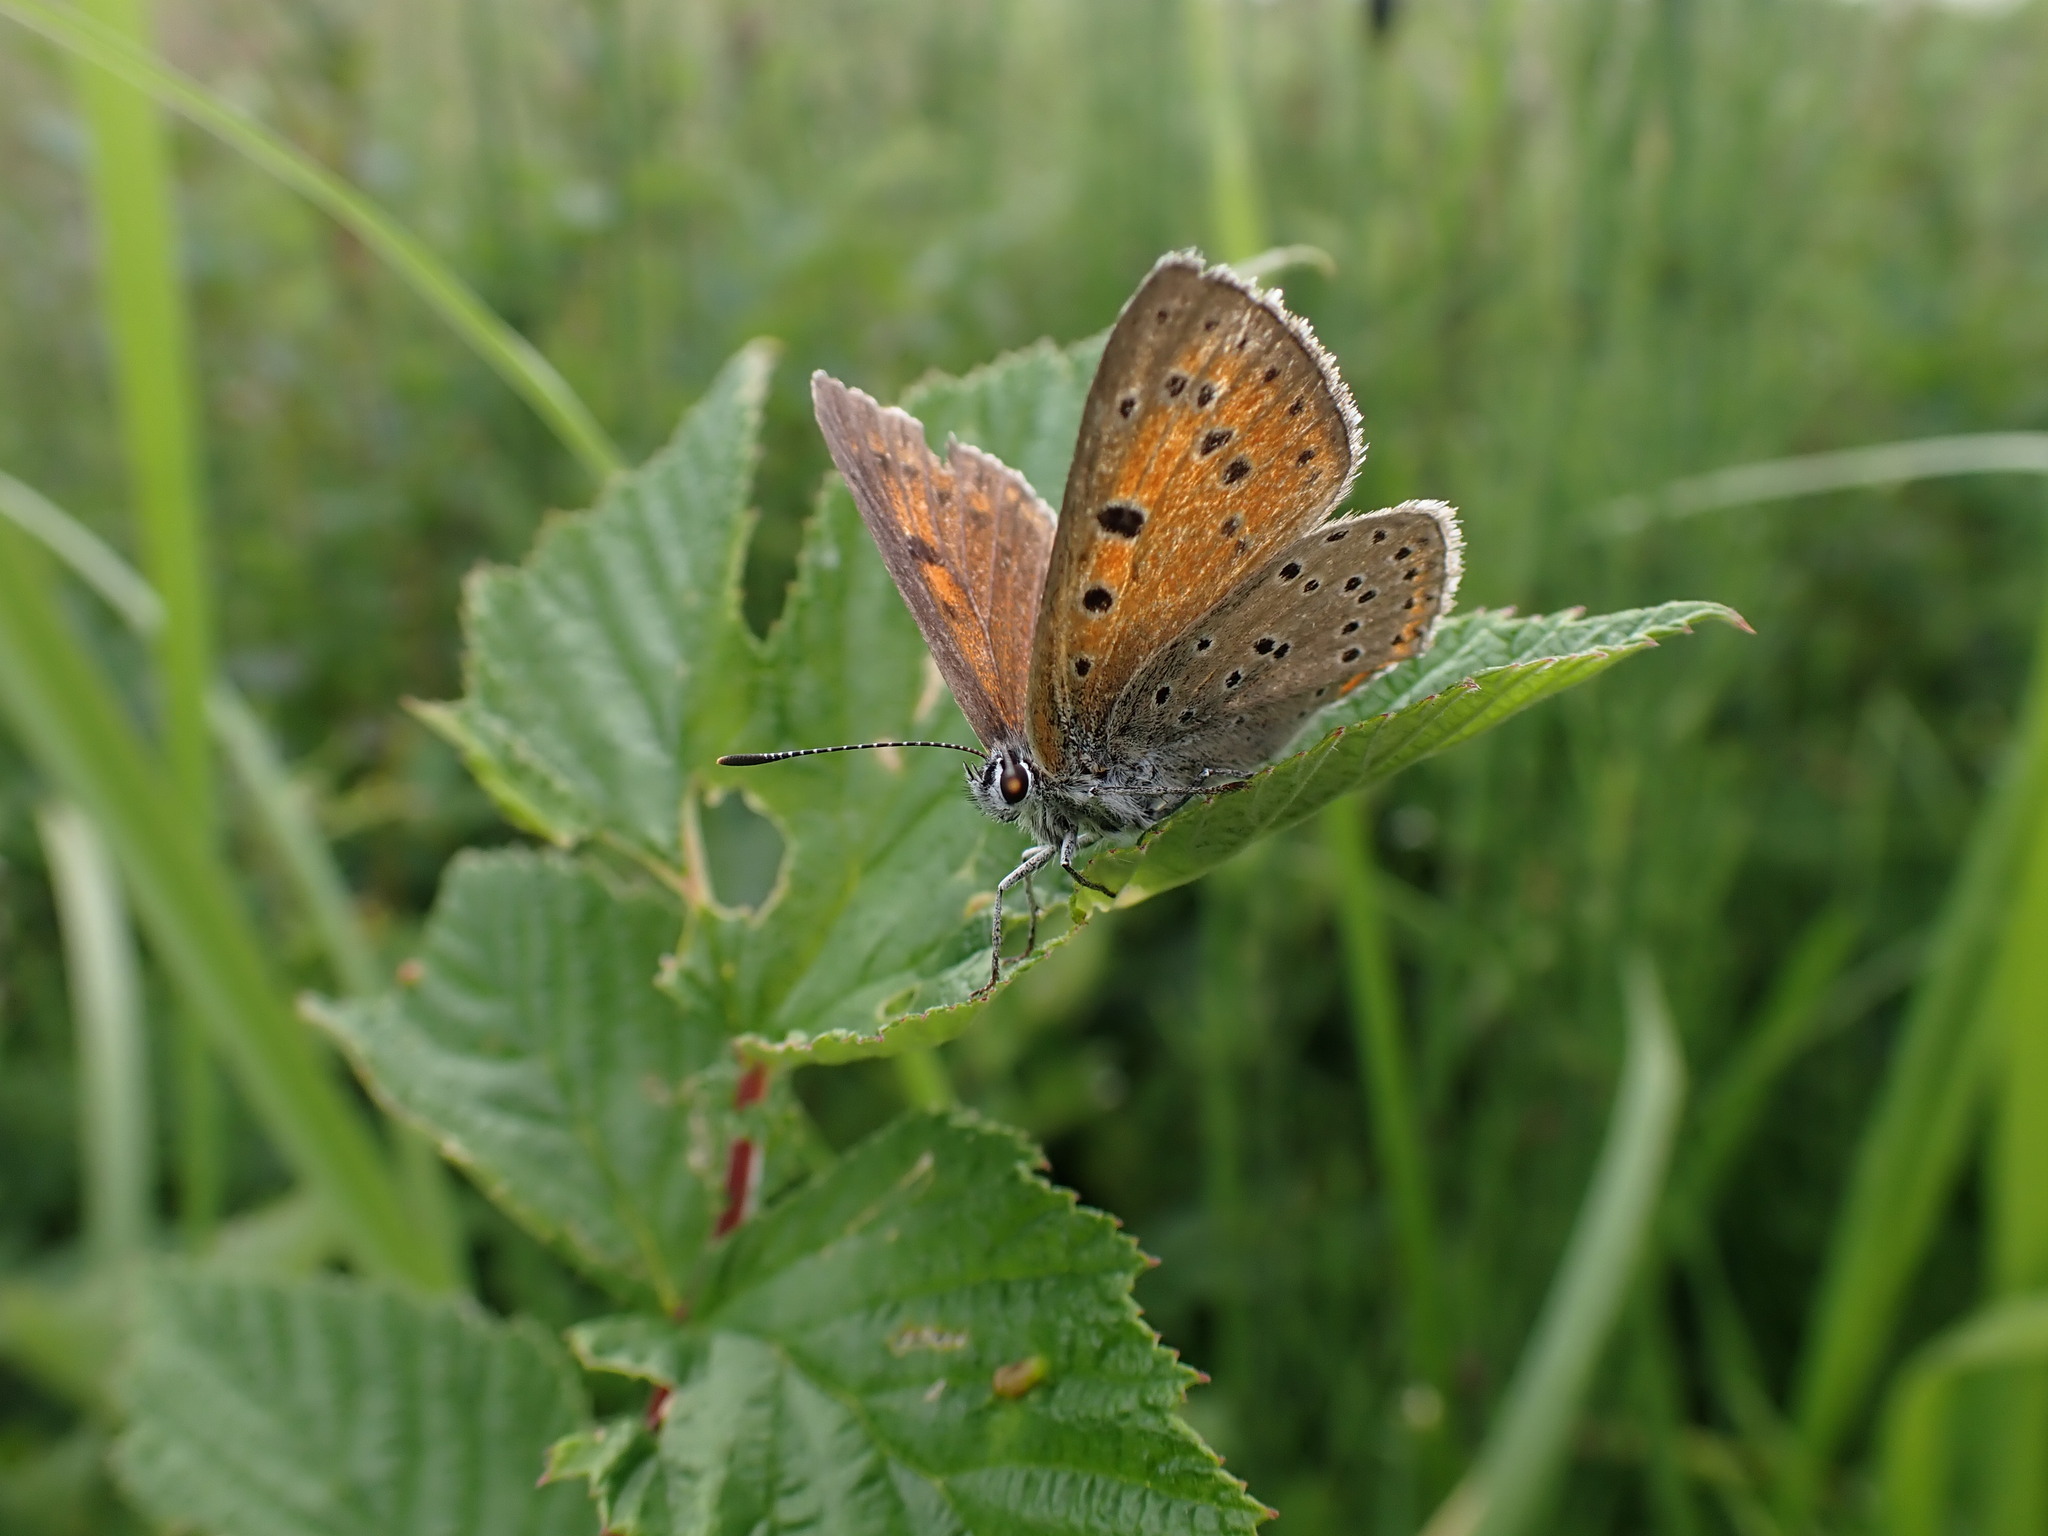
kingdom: Animalia
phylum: Arthropoda
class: Insecta
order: Lepidoptera
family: Lycaenidae
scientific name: Lycaenidae
